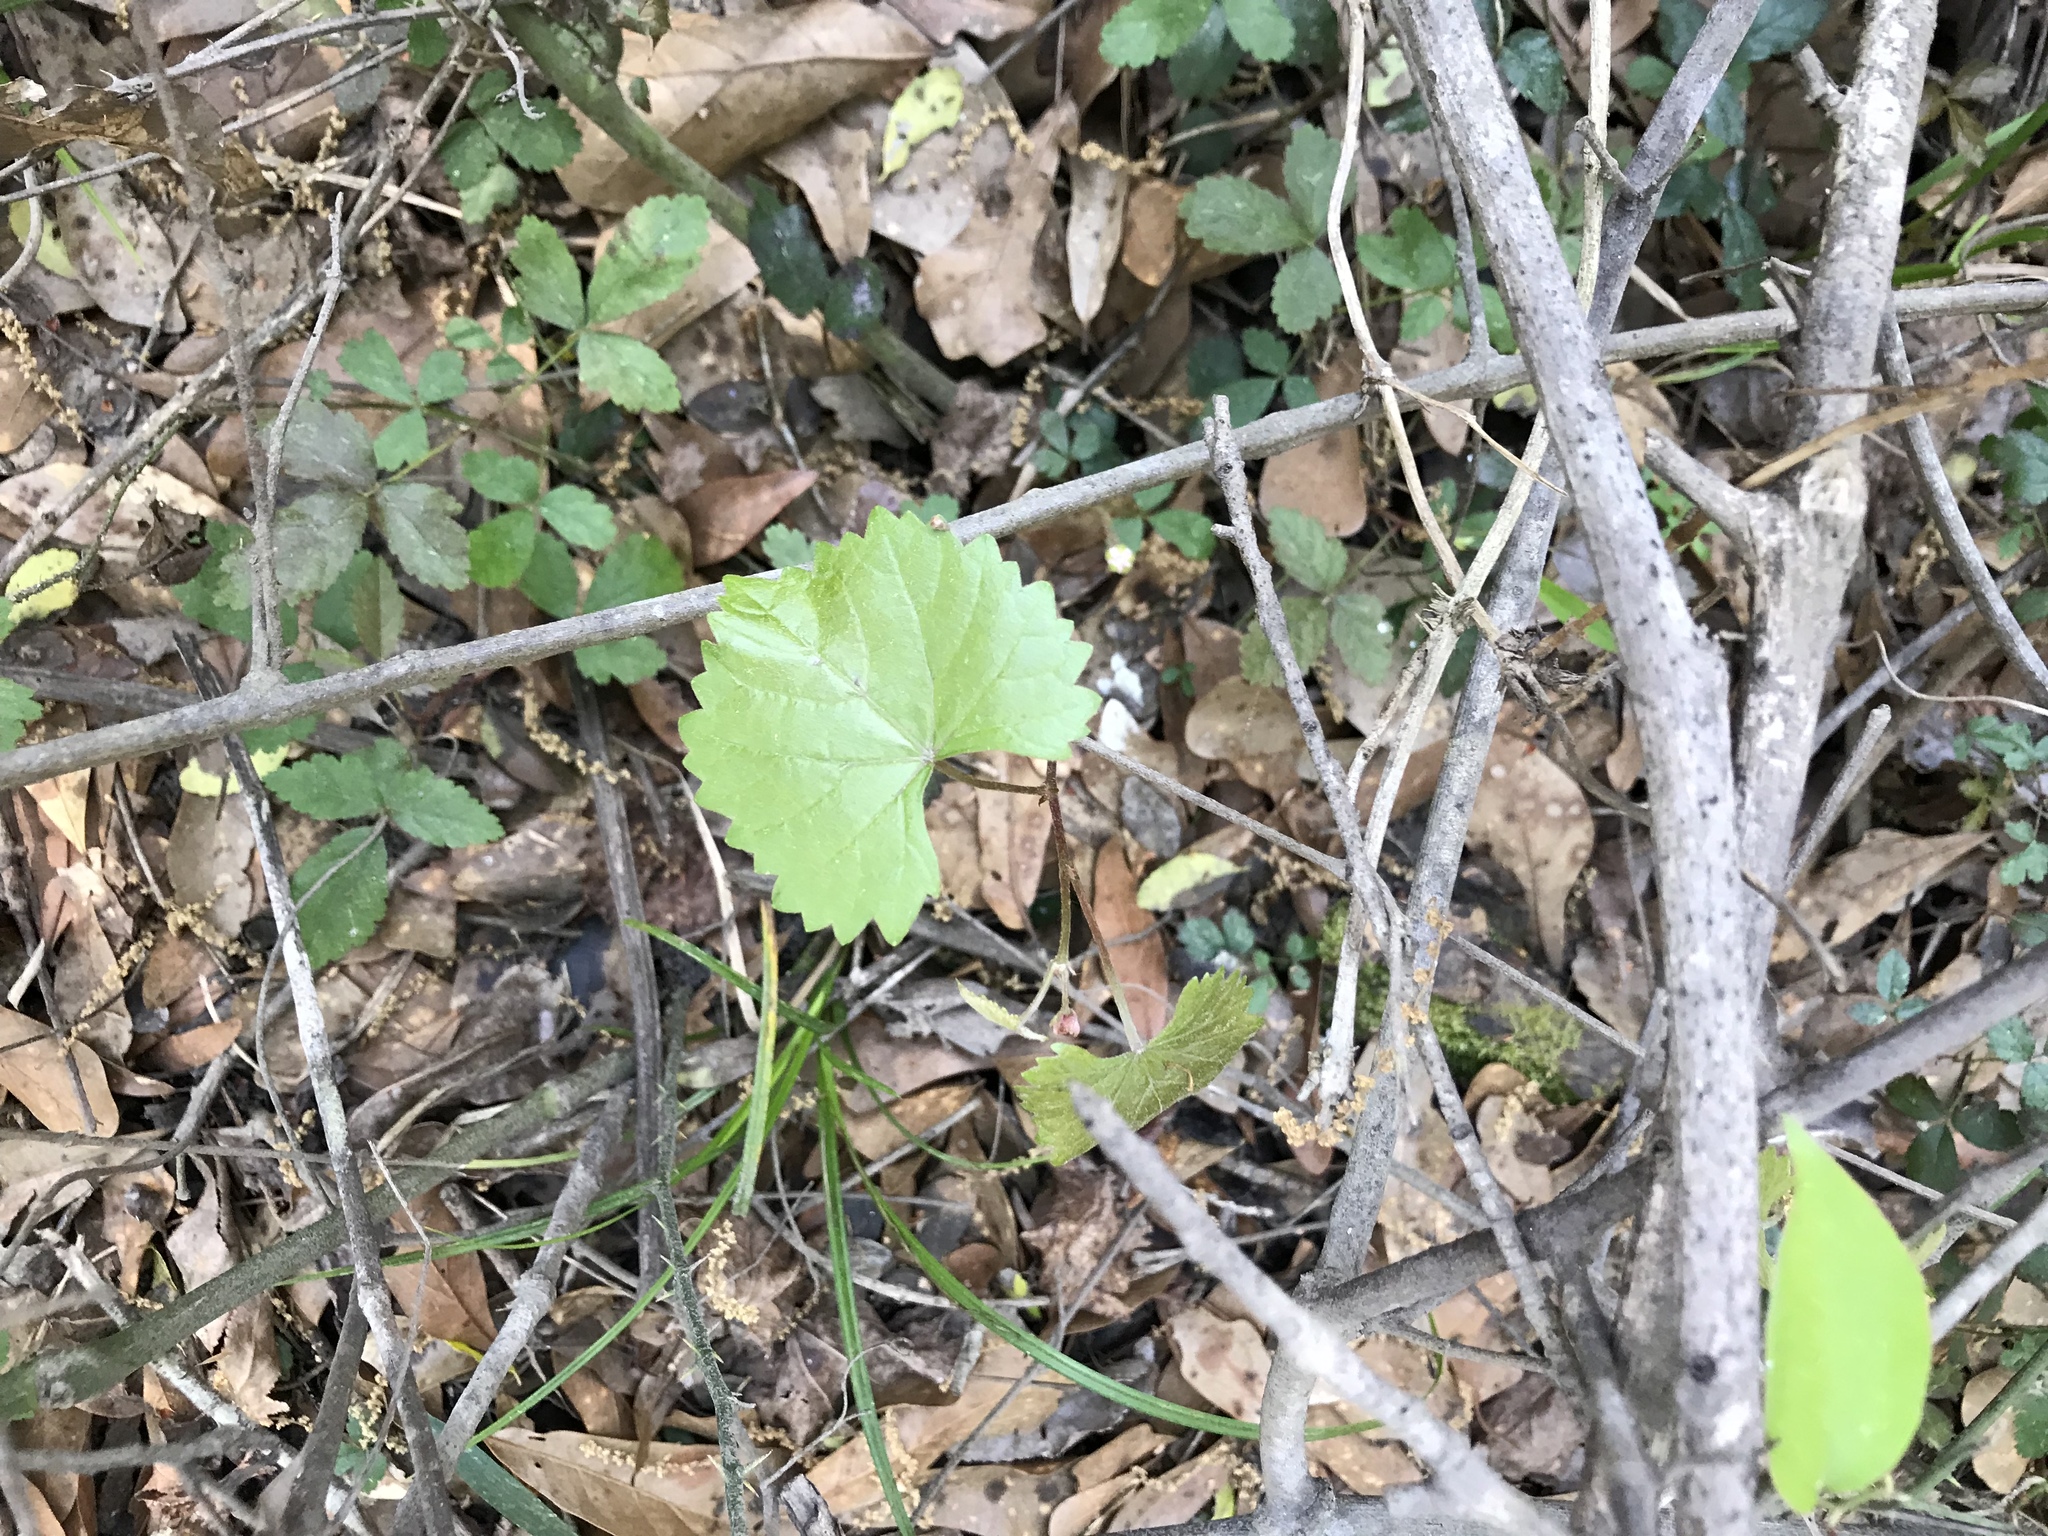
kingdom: Plantae
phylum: Tracheophyta
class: Magnoliopsida
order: Vitales
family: Vitaceae
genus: Vitis
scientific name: Vitis rotundifolia
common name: Muscadine grape
